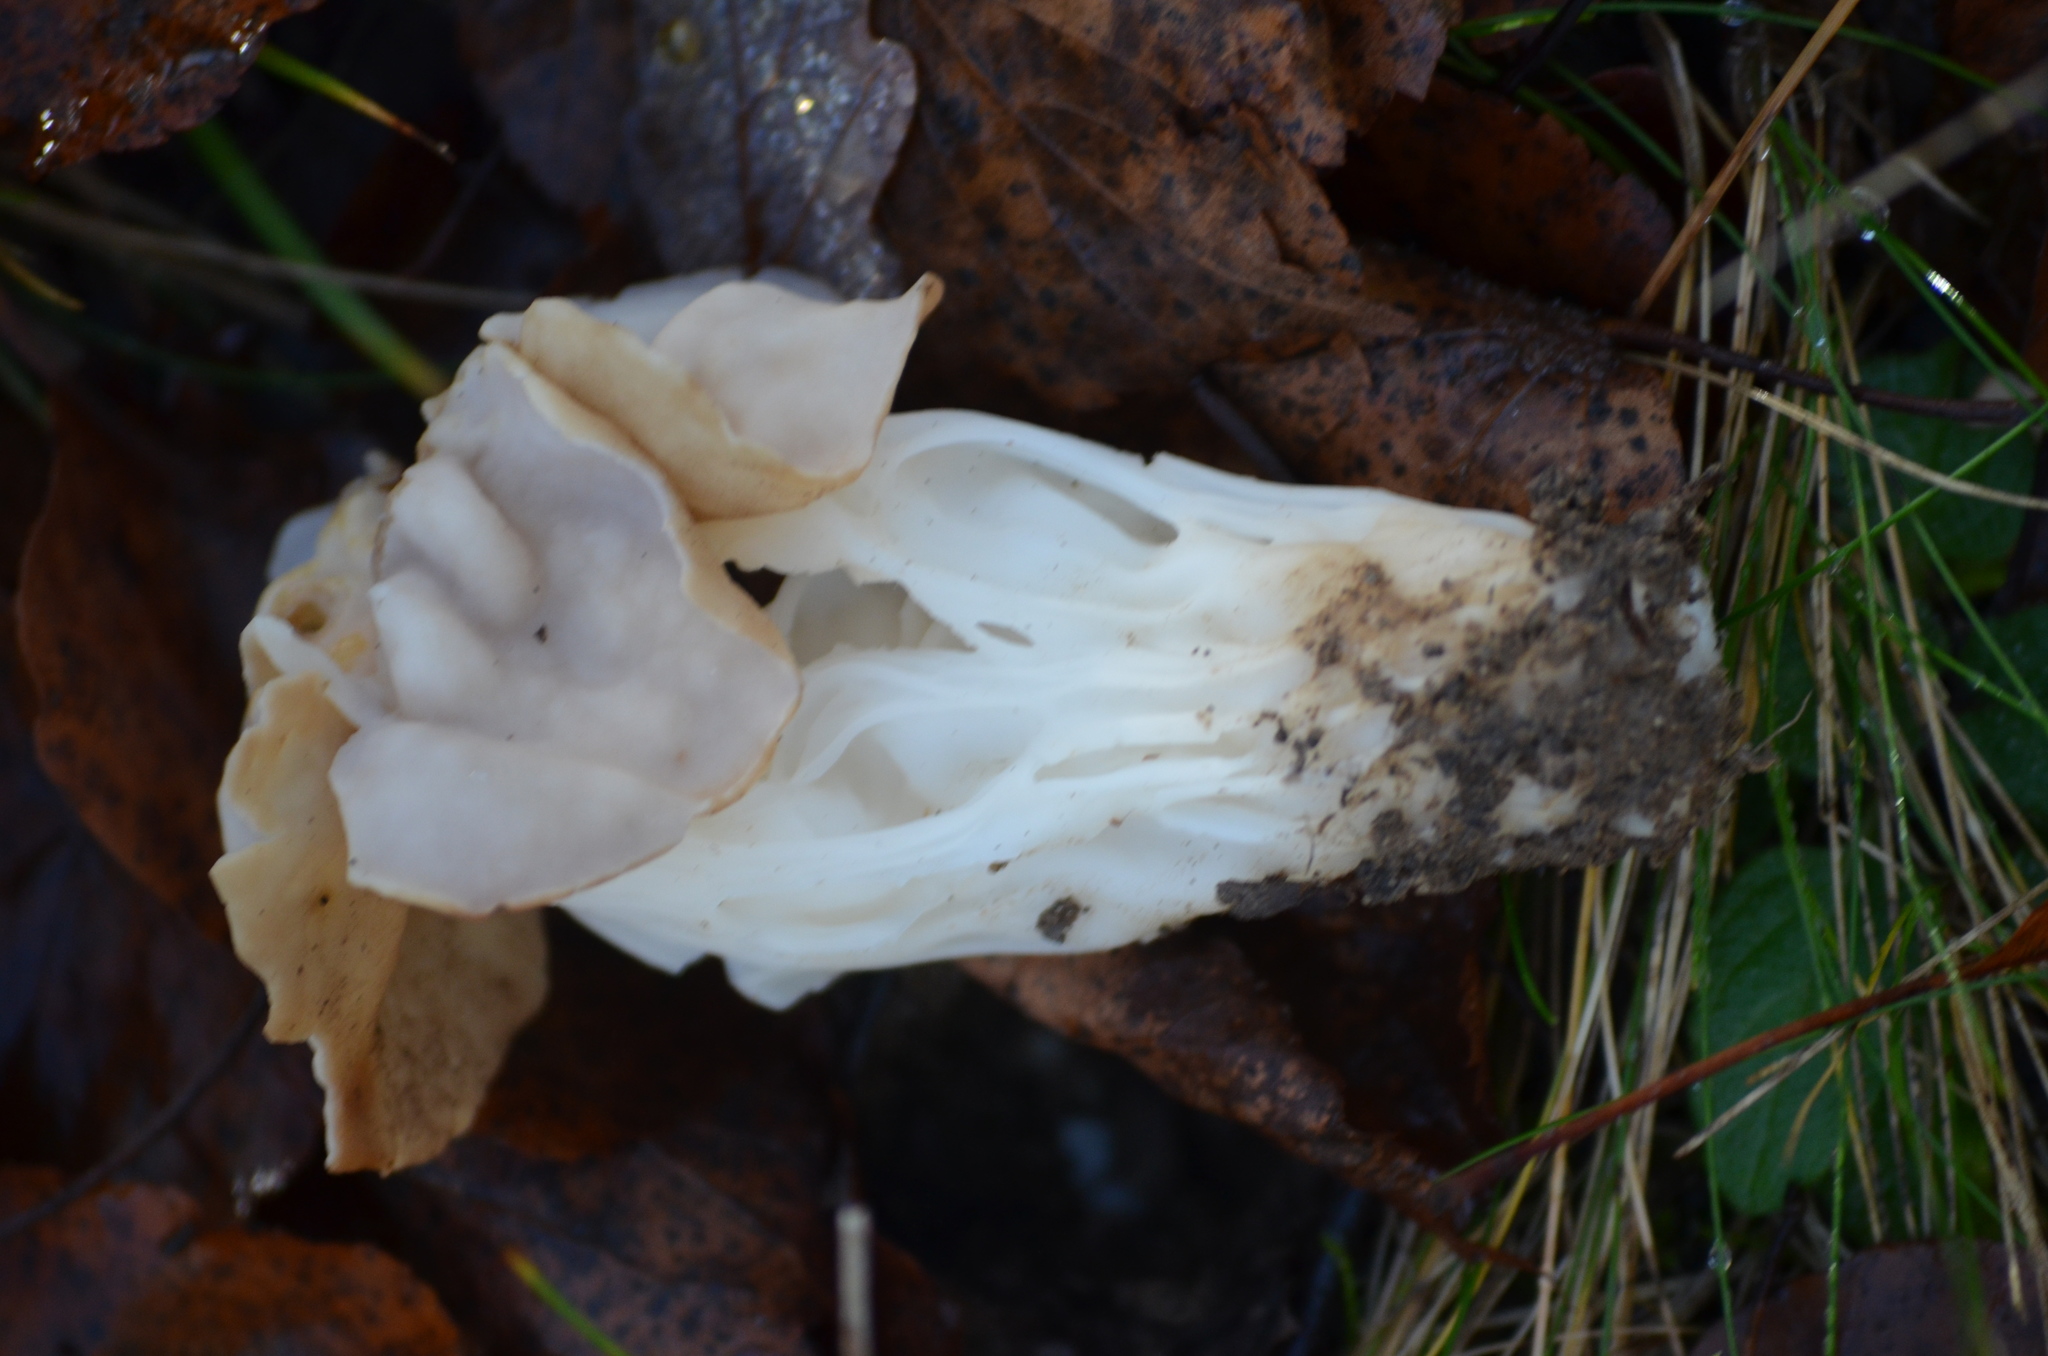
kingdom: Fungi
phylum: Ascomycota
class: Pezizomycetes
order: Pezizales
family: Helvellaceae
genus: Helvella
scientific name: Helvella crispa
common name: White saddle
